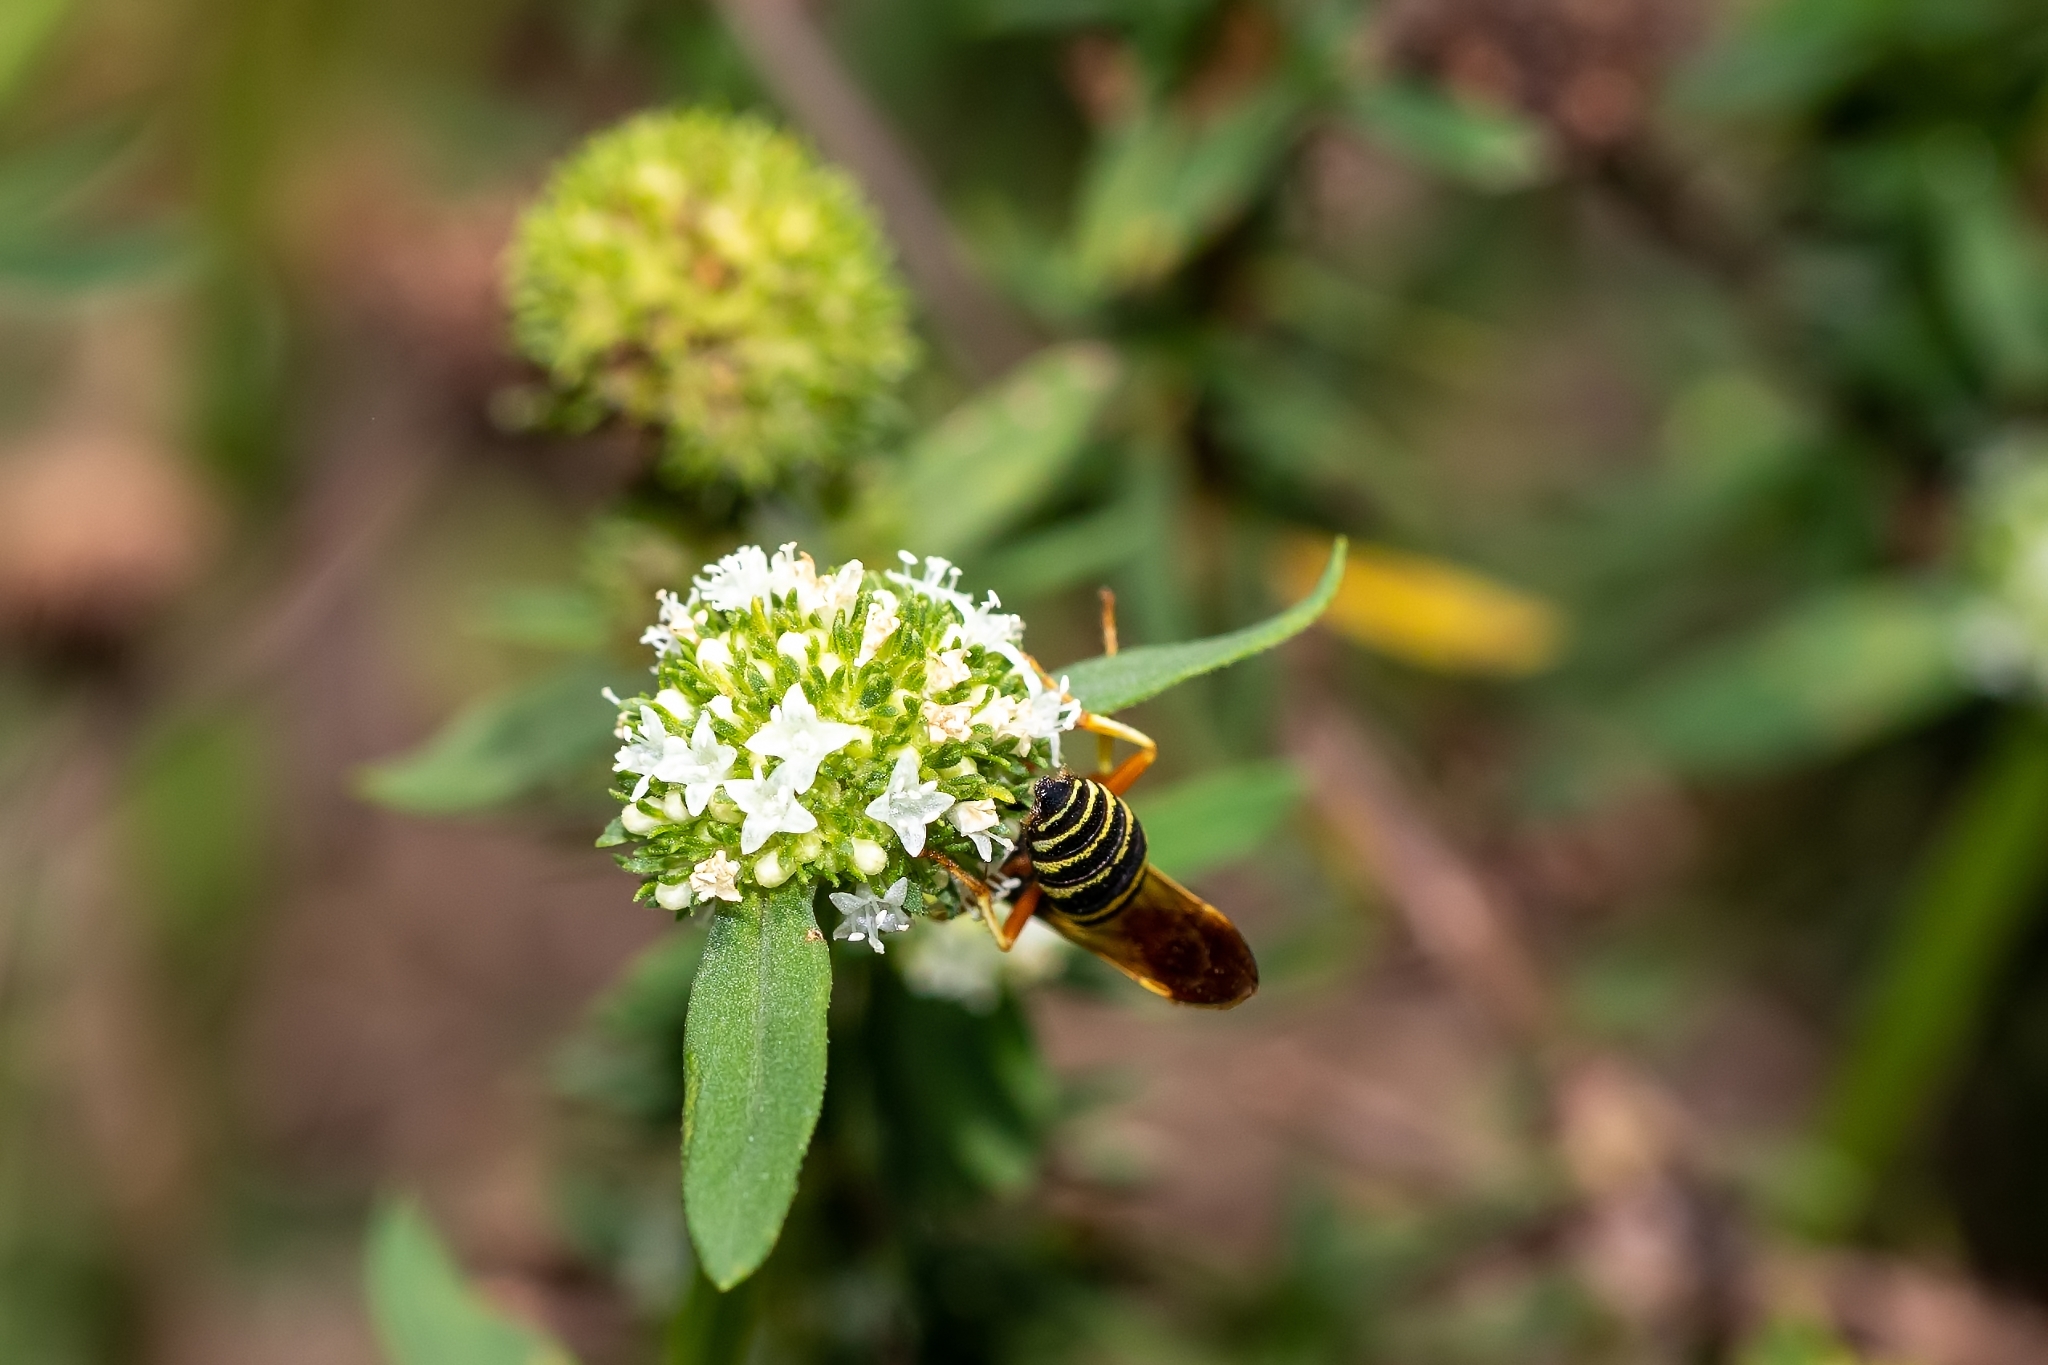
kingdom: Animalia
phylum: Arthropoda
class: Insecta
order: Hymenoptera
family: Crabronidae
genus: Philanthus
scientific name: Philanthus ventilabris
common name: Bee-killer wasp
